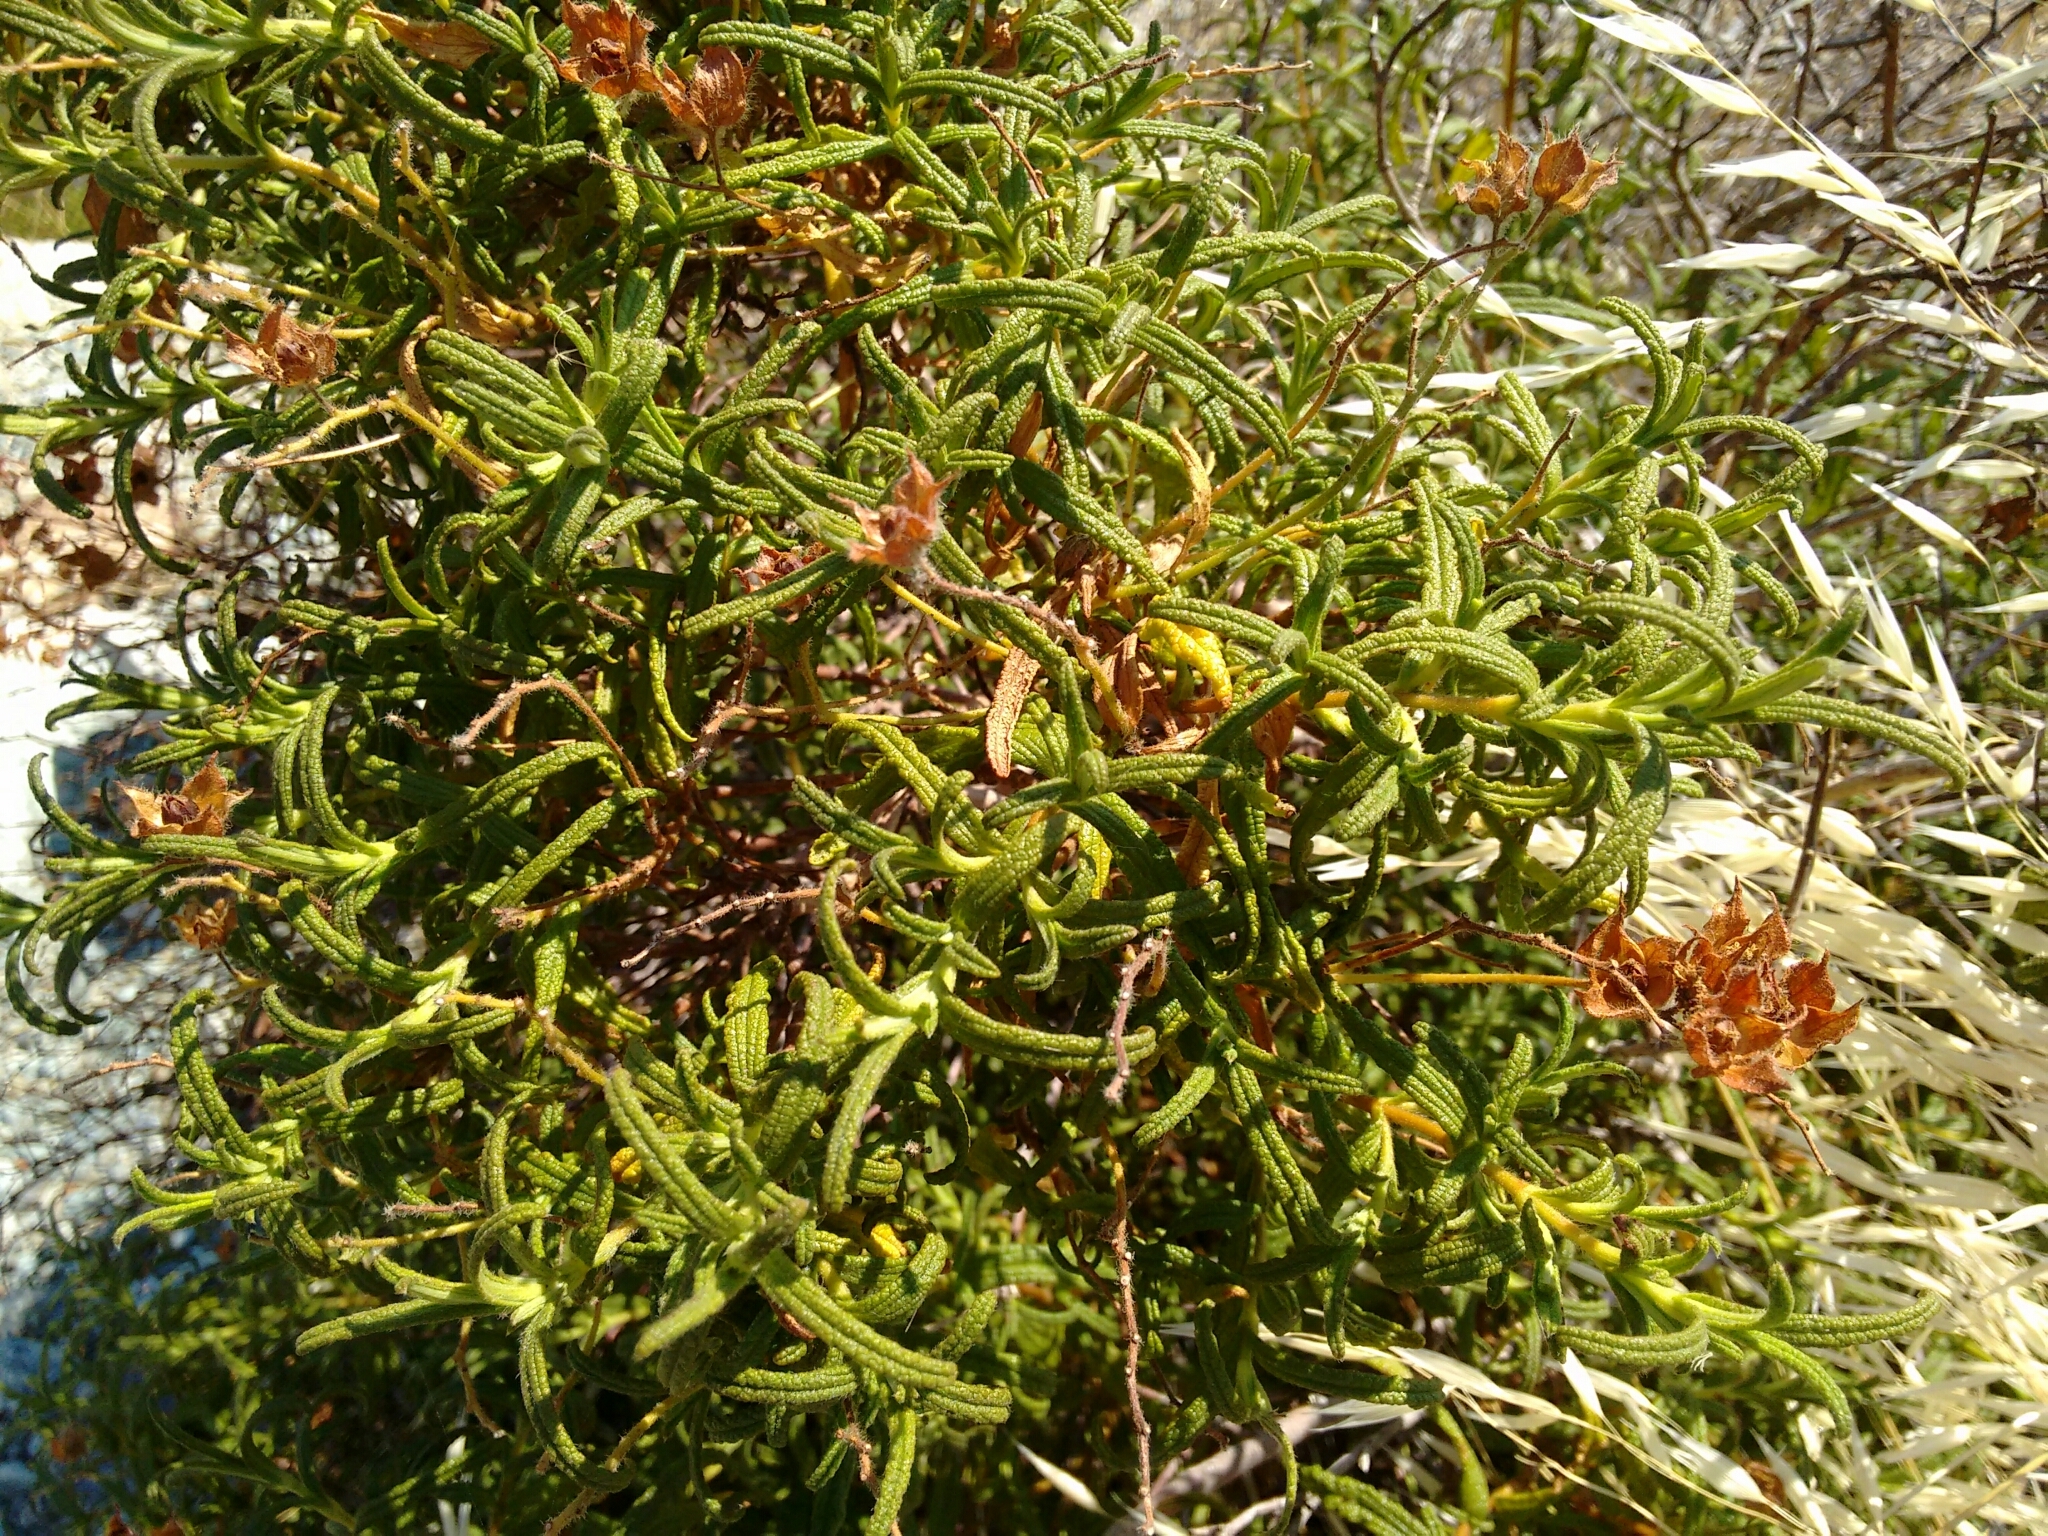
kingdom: Plantae
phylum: Tracheophyta
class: Magnoliopsida
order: Malvales
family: Cistaceae
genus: Cistus
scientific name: Cistus monspeliensis
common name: Montpelier cistus
